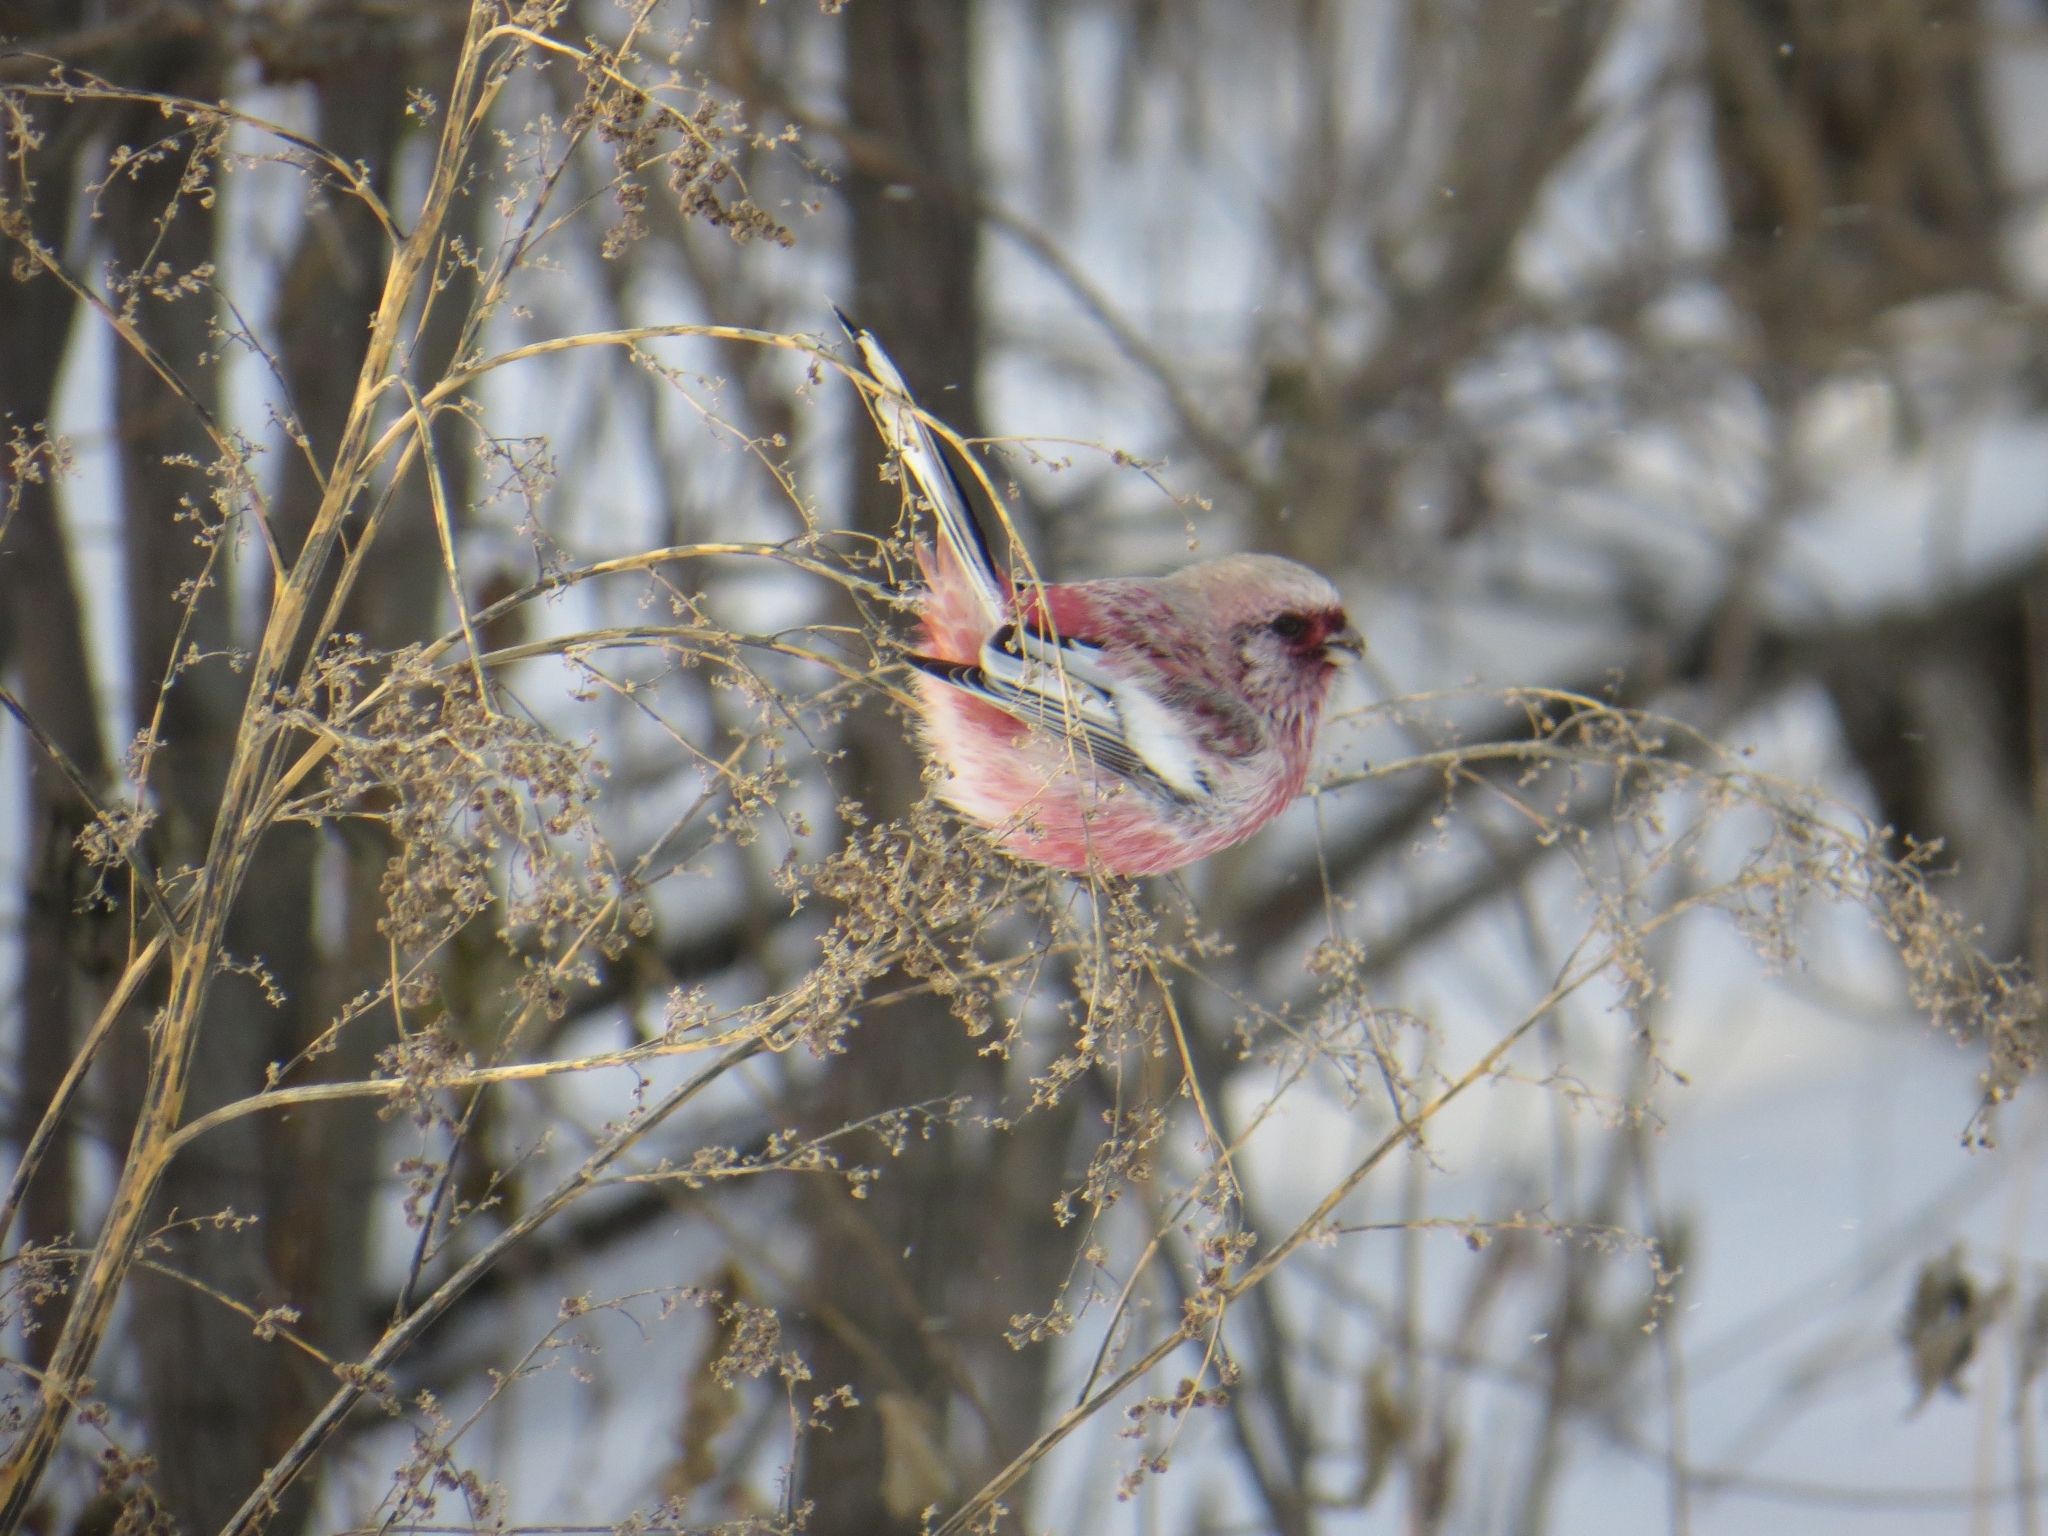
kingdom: Animalia
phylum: Chordata
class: Aves
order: Passeriformes
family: Fringillidae
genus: Carpodacus
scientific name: Carpodacus sibiricus
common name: Long-tailed rosefinch
